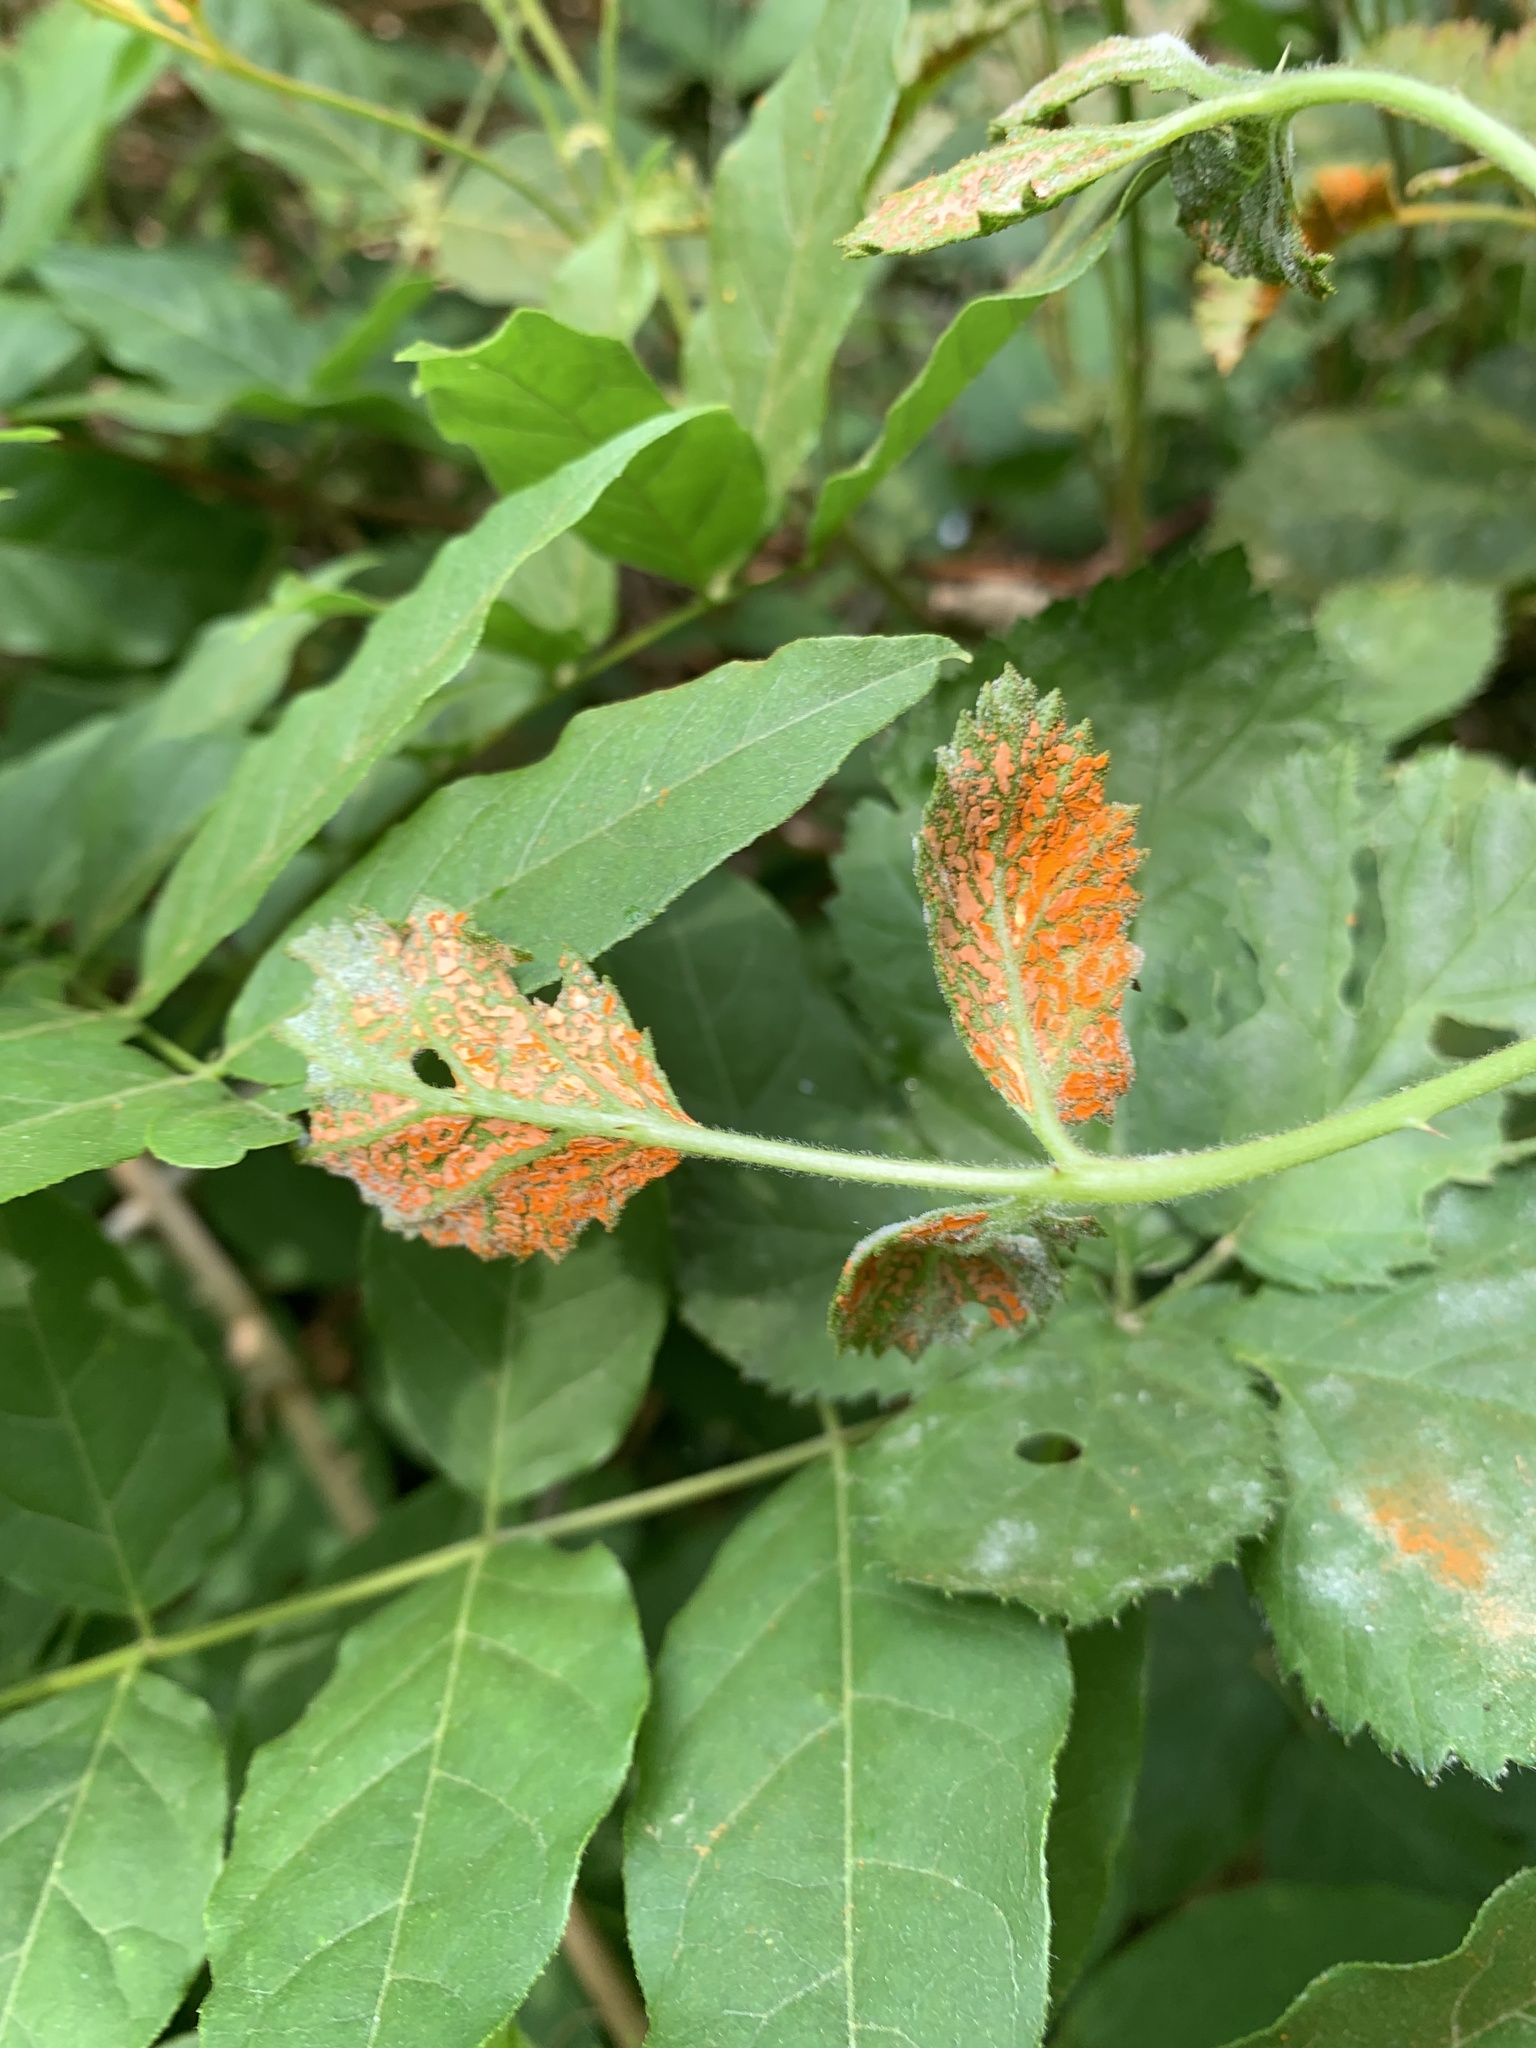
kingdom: Fungi
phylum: Basidiomycota
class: Pucciniomycetes
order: Pucciniales
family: Phragmidiaceae
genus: Arthuriomyces
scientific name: Arthuriomyces peckianus
